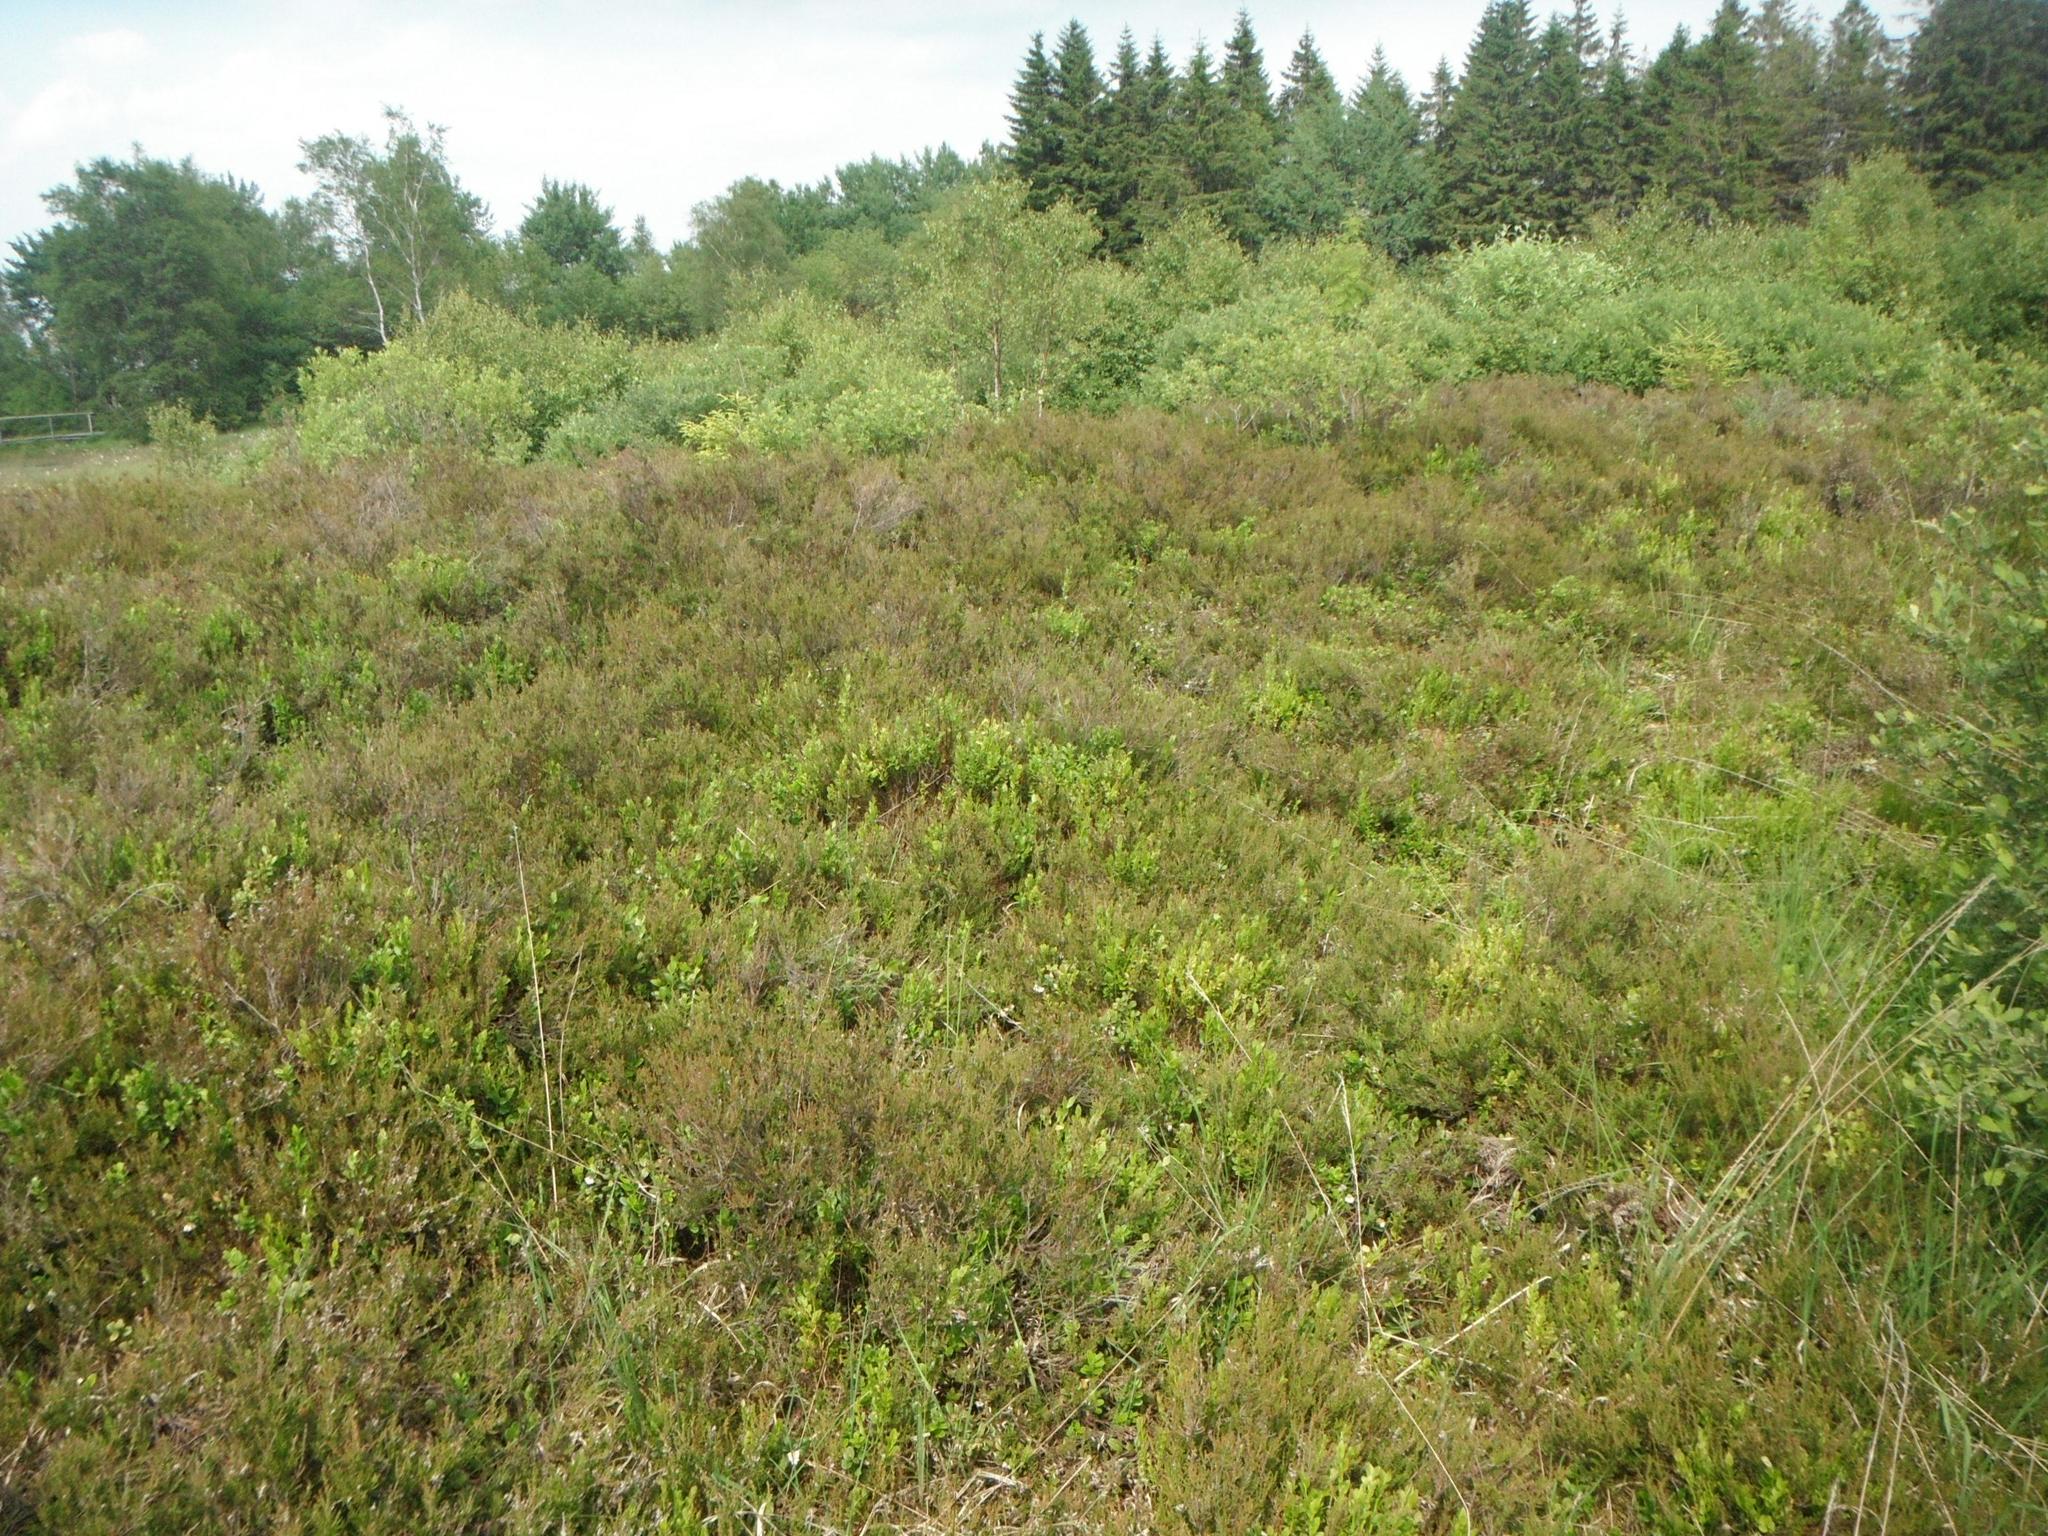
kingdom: Plantae
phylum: Tracheophyta
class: Magnoliopsida
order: Ericales
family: Ericaceae
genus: Calluna
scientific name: Calluna vulgaris
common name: Heather
